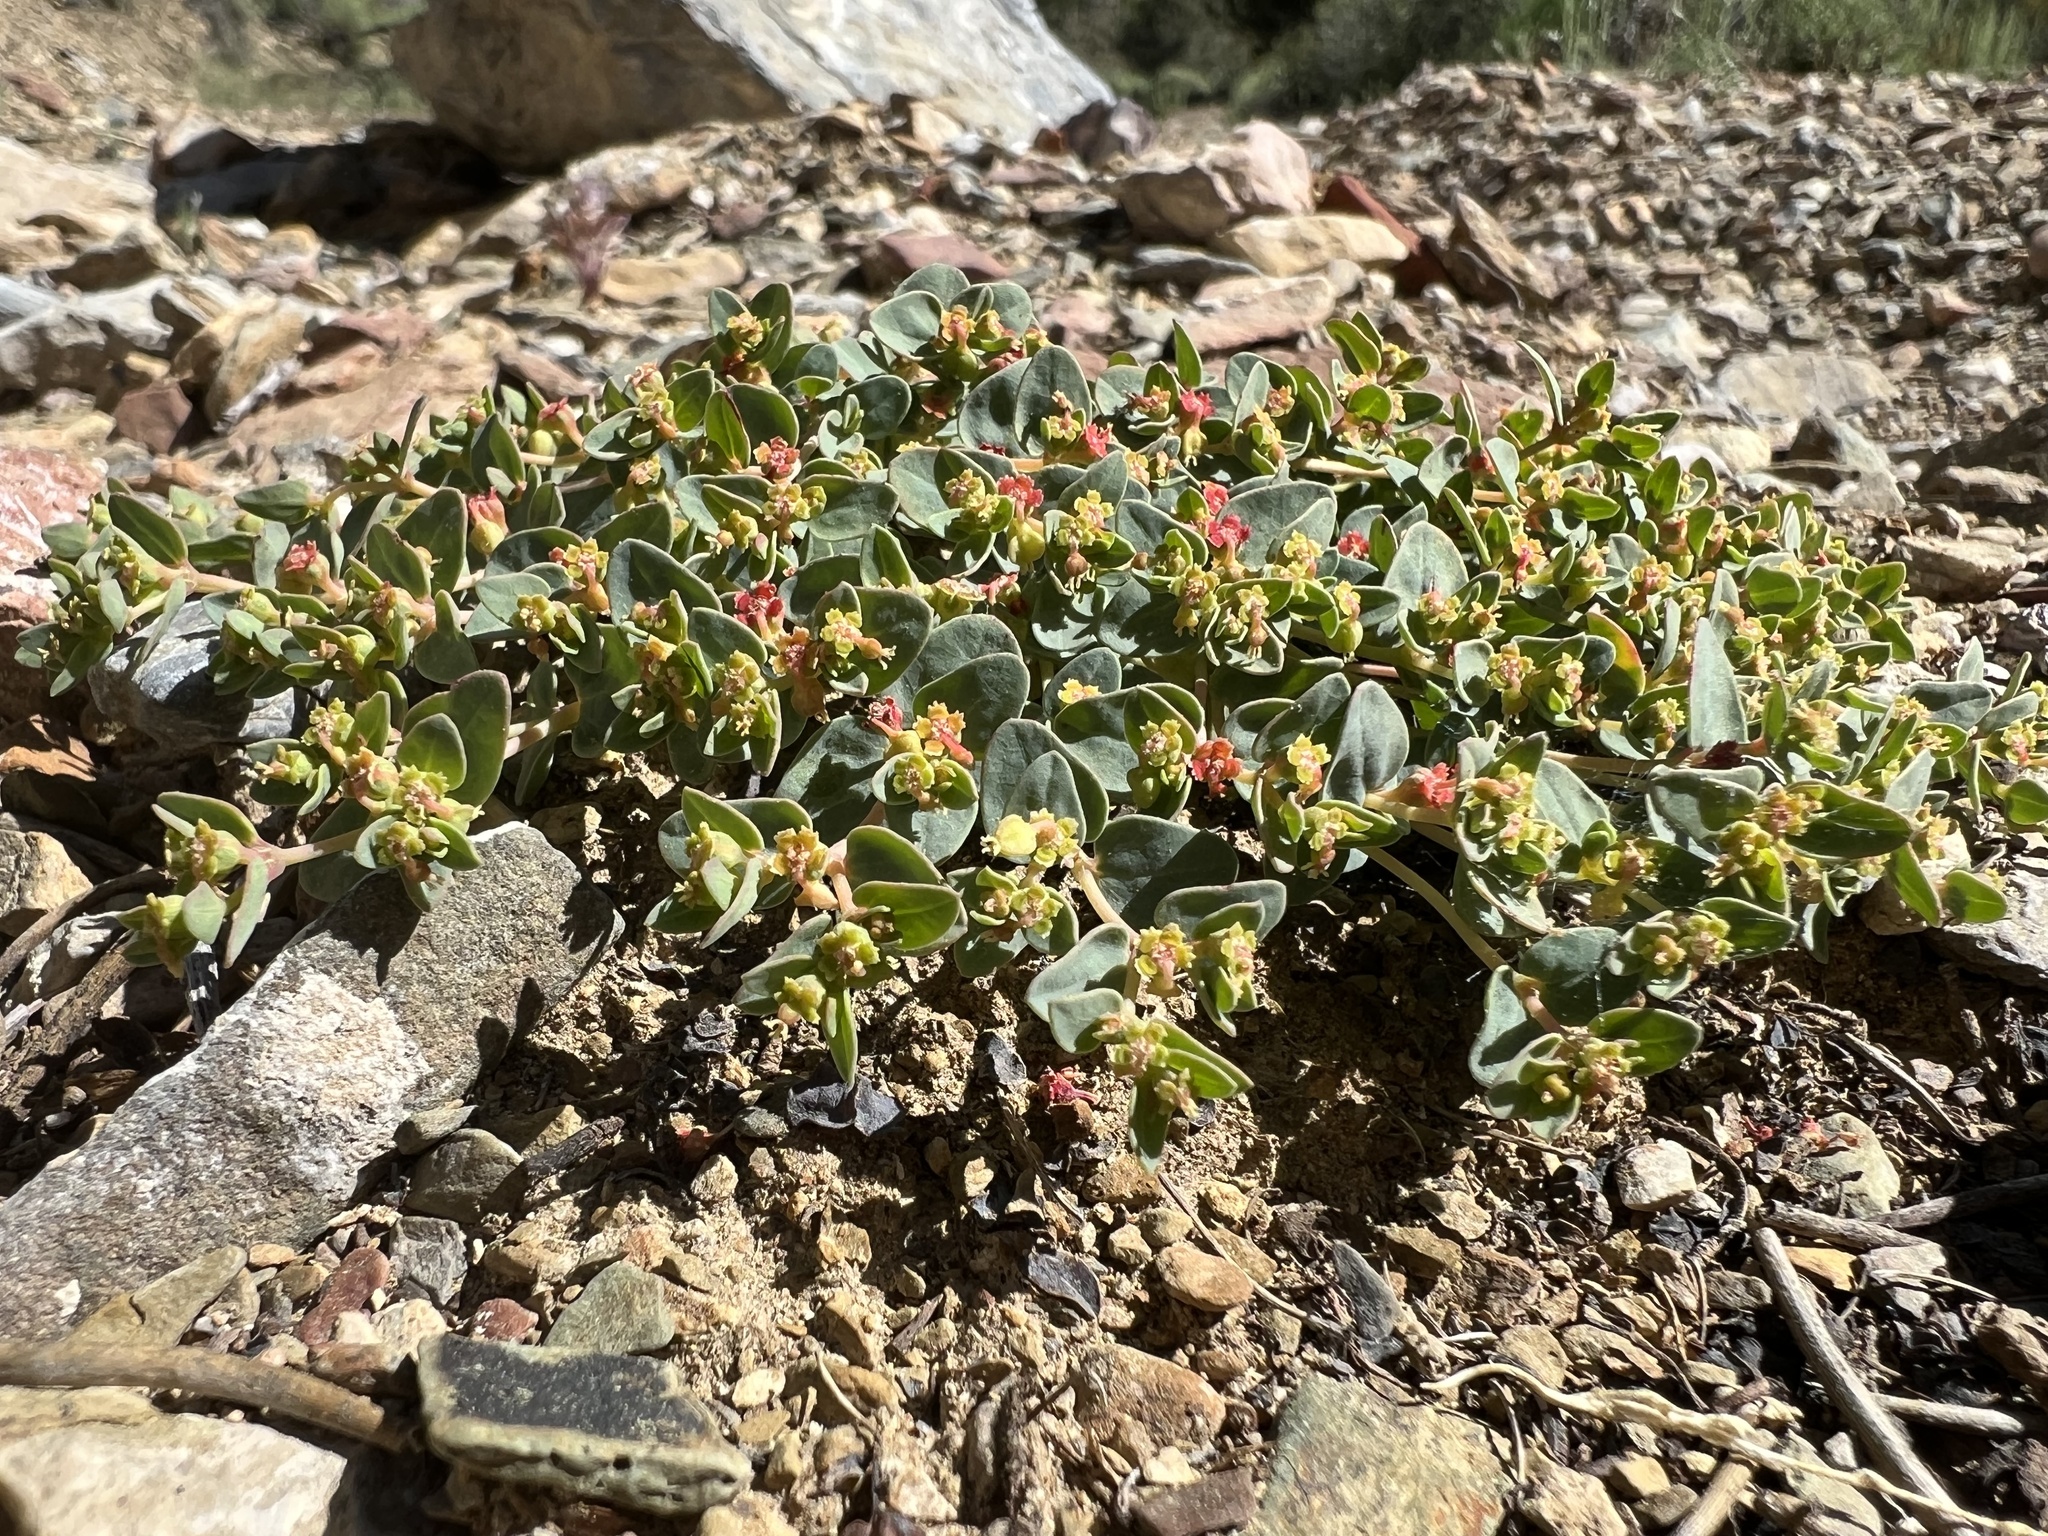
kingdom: Plantae
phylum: Tracheophyta
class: Magnoliopsida
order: Malpighiales
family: Euphorbiaceae
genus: Euphorbia
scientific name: Euphorbia fendleri
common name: Fendler's euphorbia
